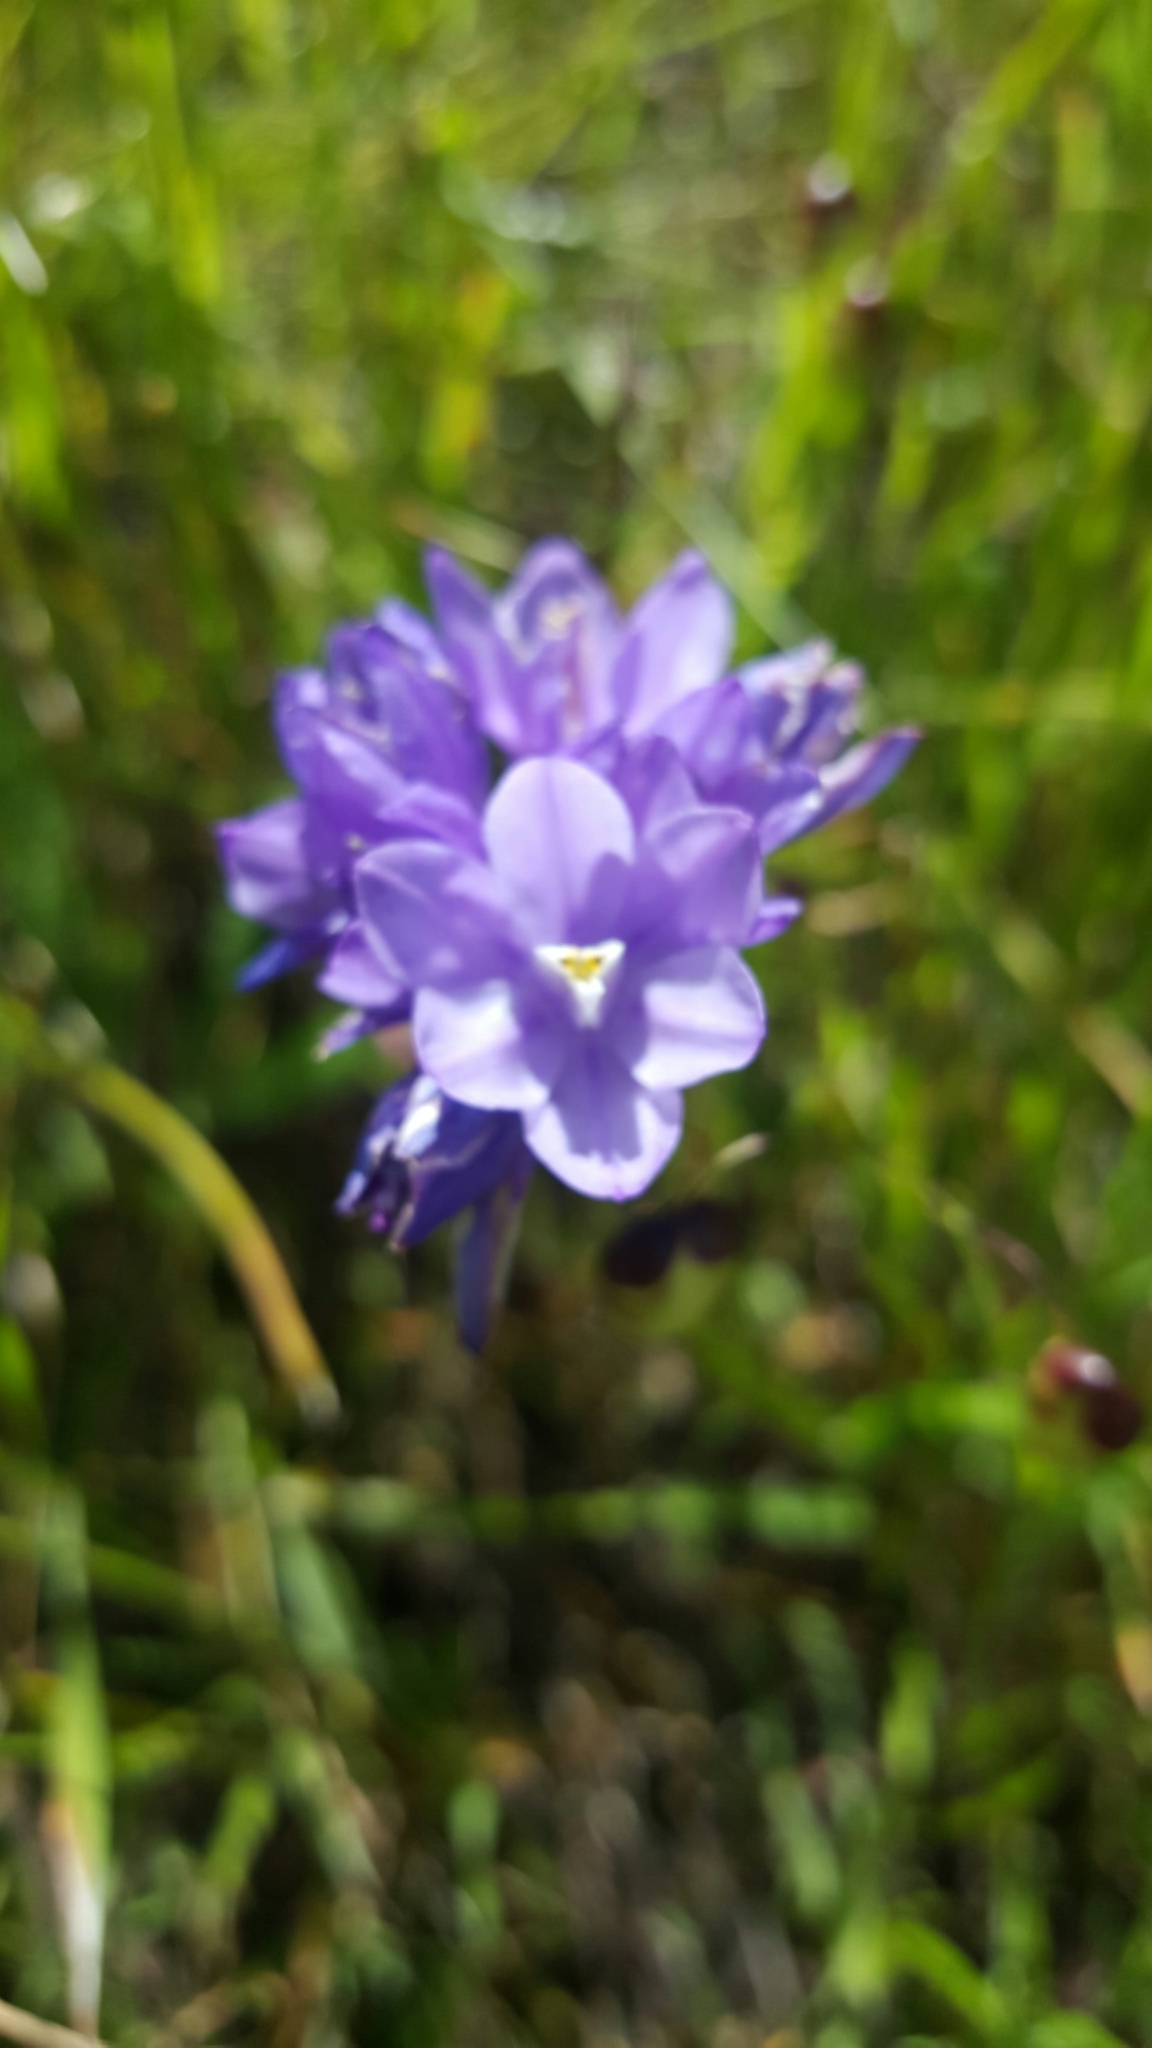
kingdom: Plantae
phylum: Tracheophyta
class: Liliopsida
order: Asparagales
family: Asparagaceae
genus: Dipterostemon
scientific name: Dipterostemon capitatus
